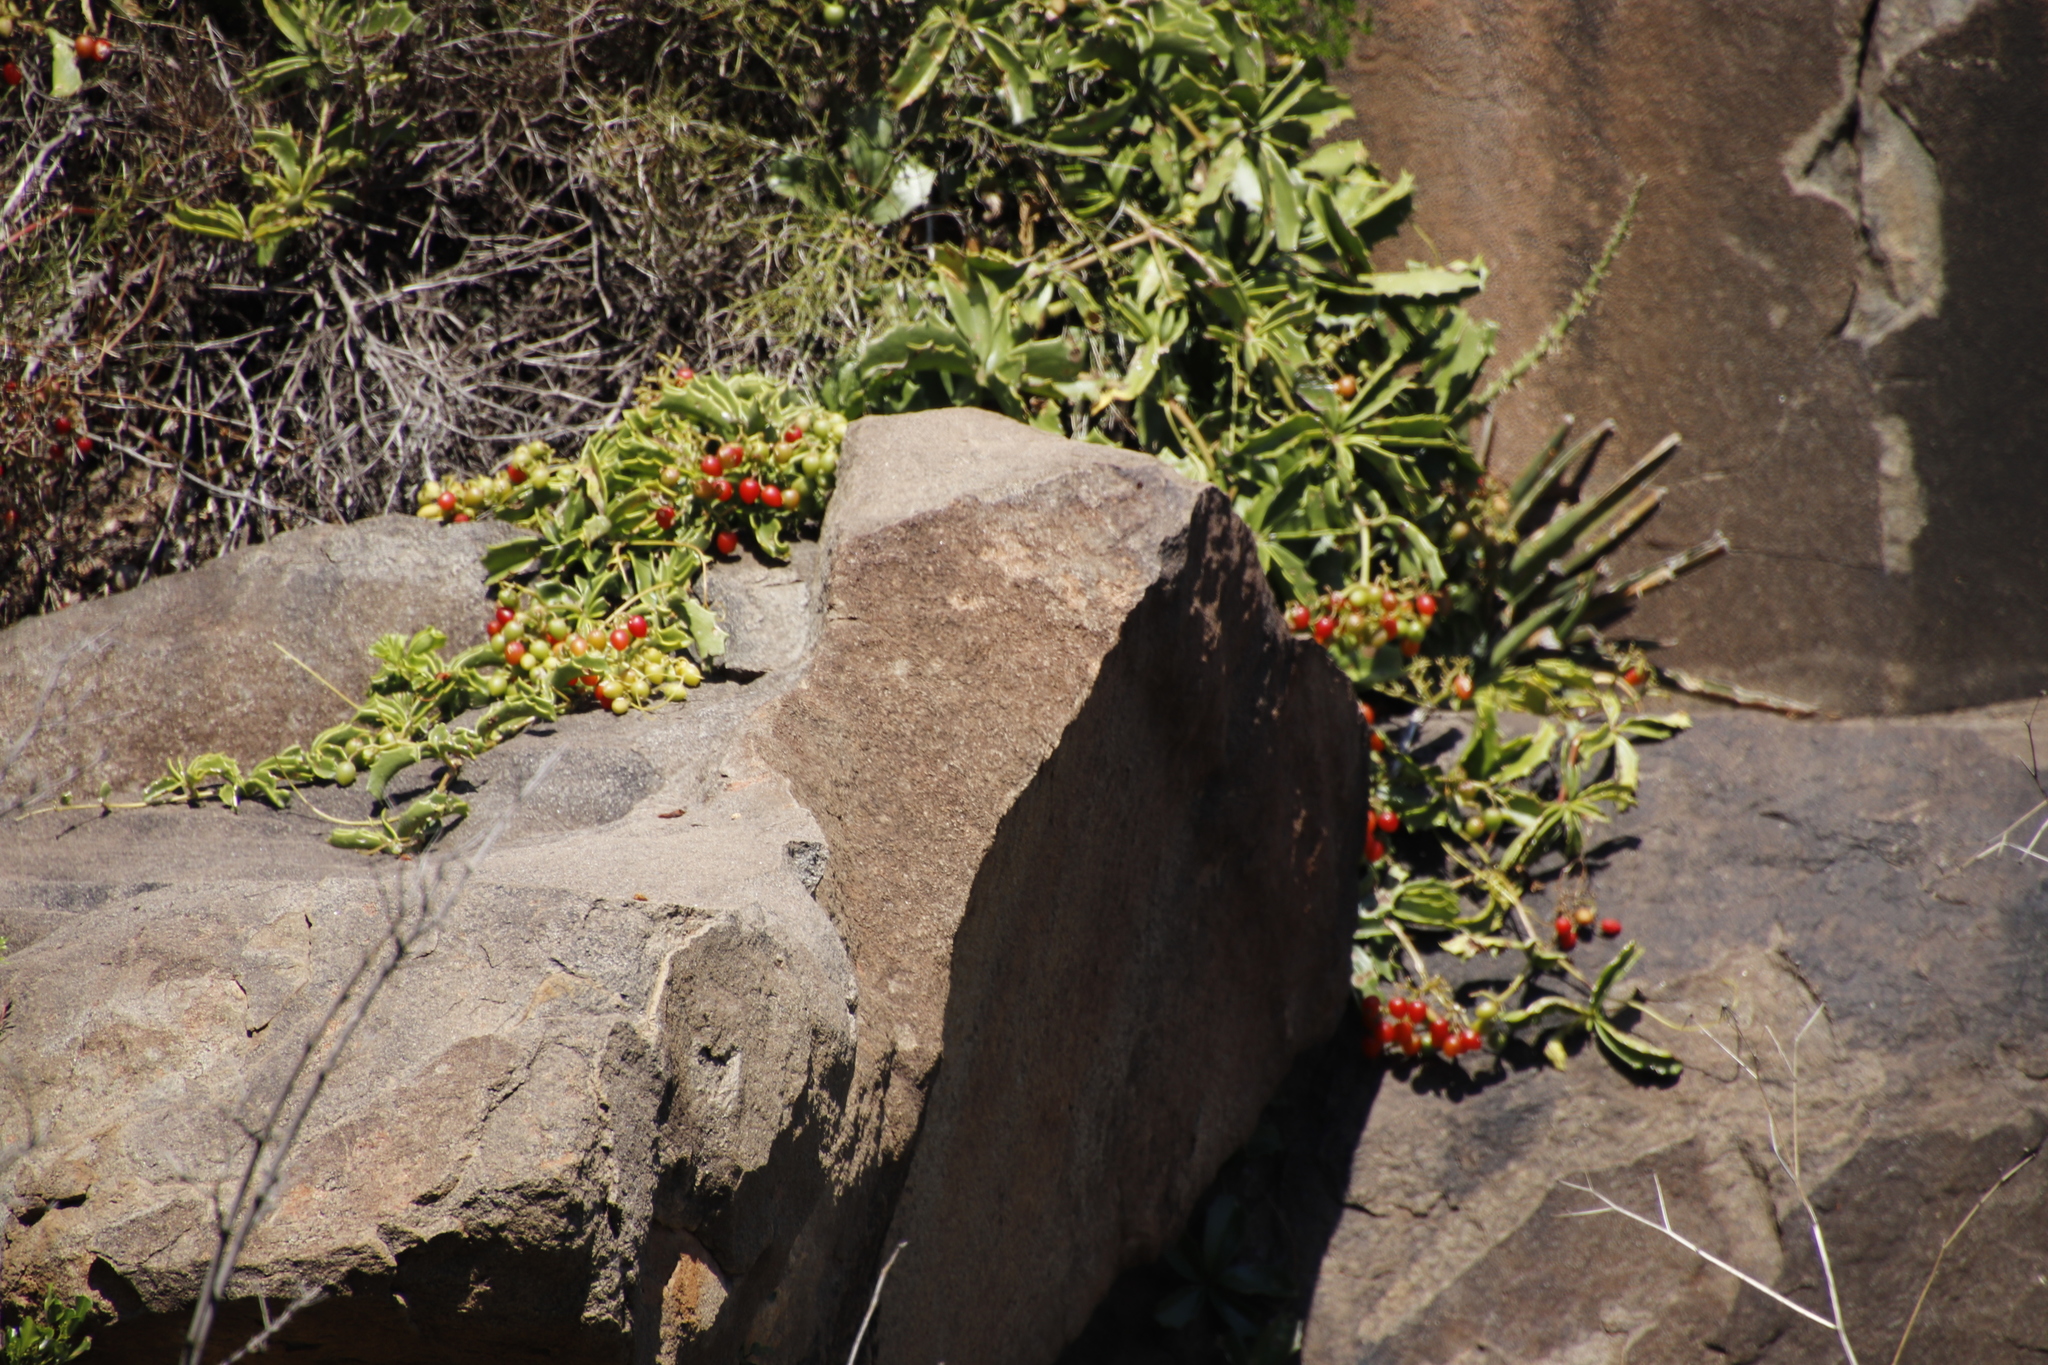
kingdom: Plantae
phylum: Tracheophyta
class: Magnoliopsida
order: Vitales
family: Vitaceae
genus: Cyphostemma
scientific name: Cyphostemma quinatum
